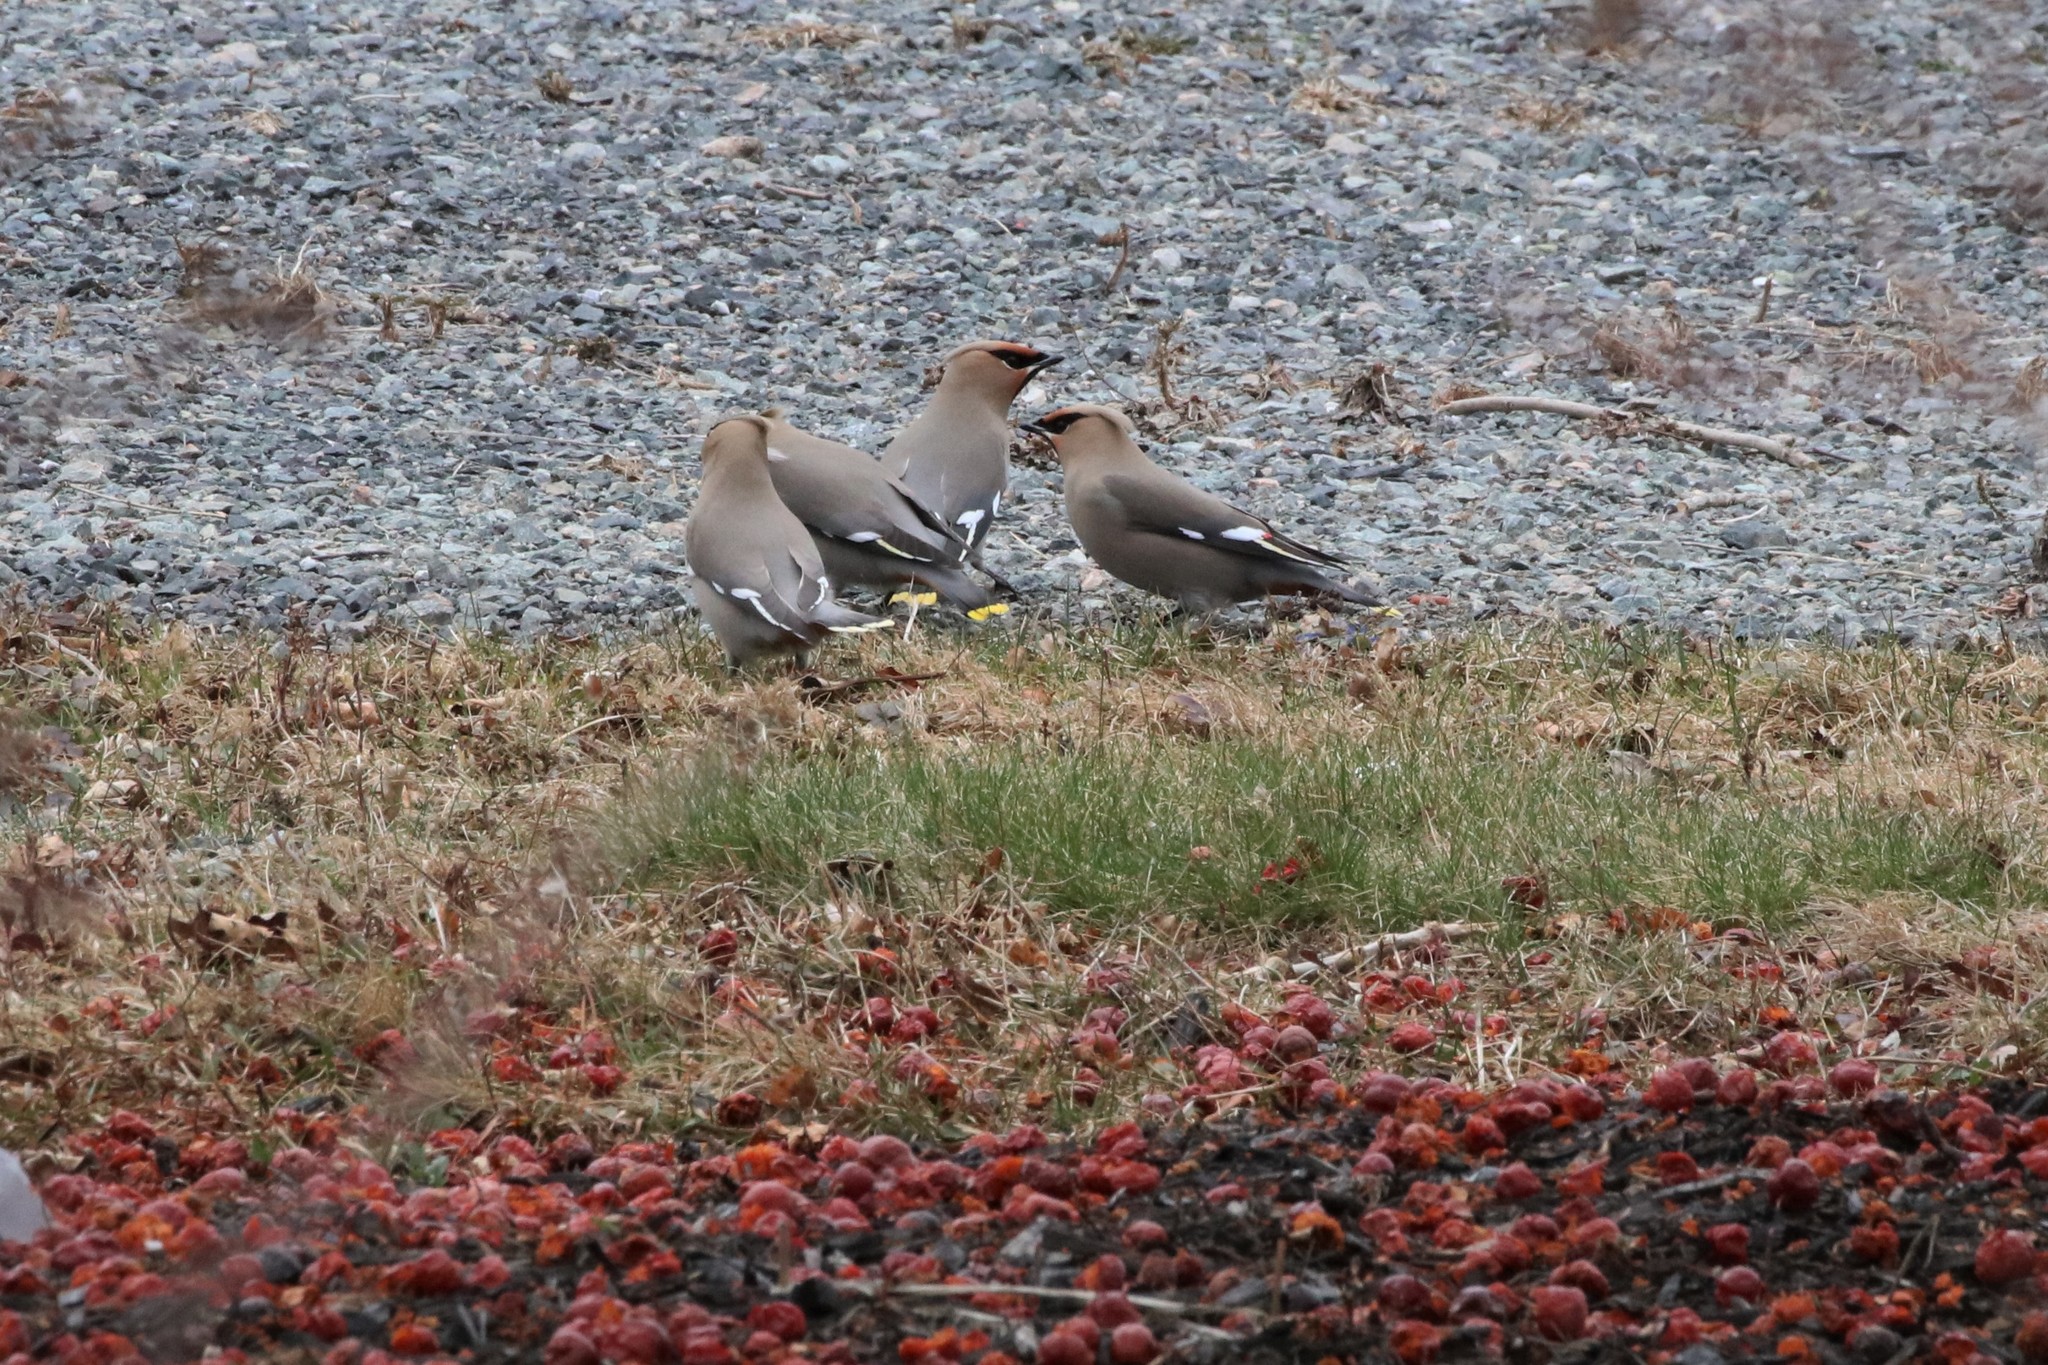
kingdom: Animalia
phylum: Chordata
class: Aves
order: Passeriformes
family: Bombycillidae
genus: Bombycilla
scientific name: Bombycilla garrulus
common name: Bohemian waxwing
